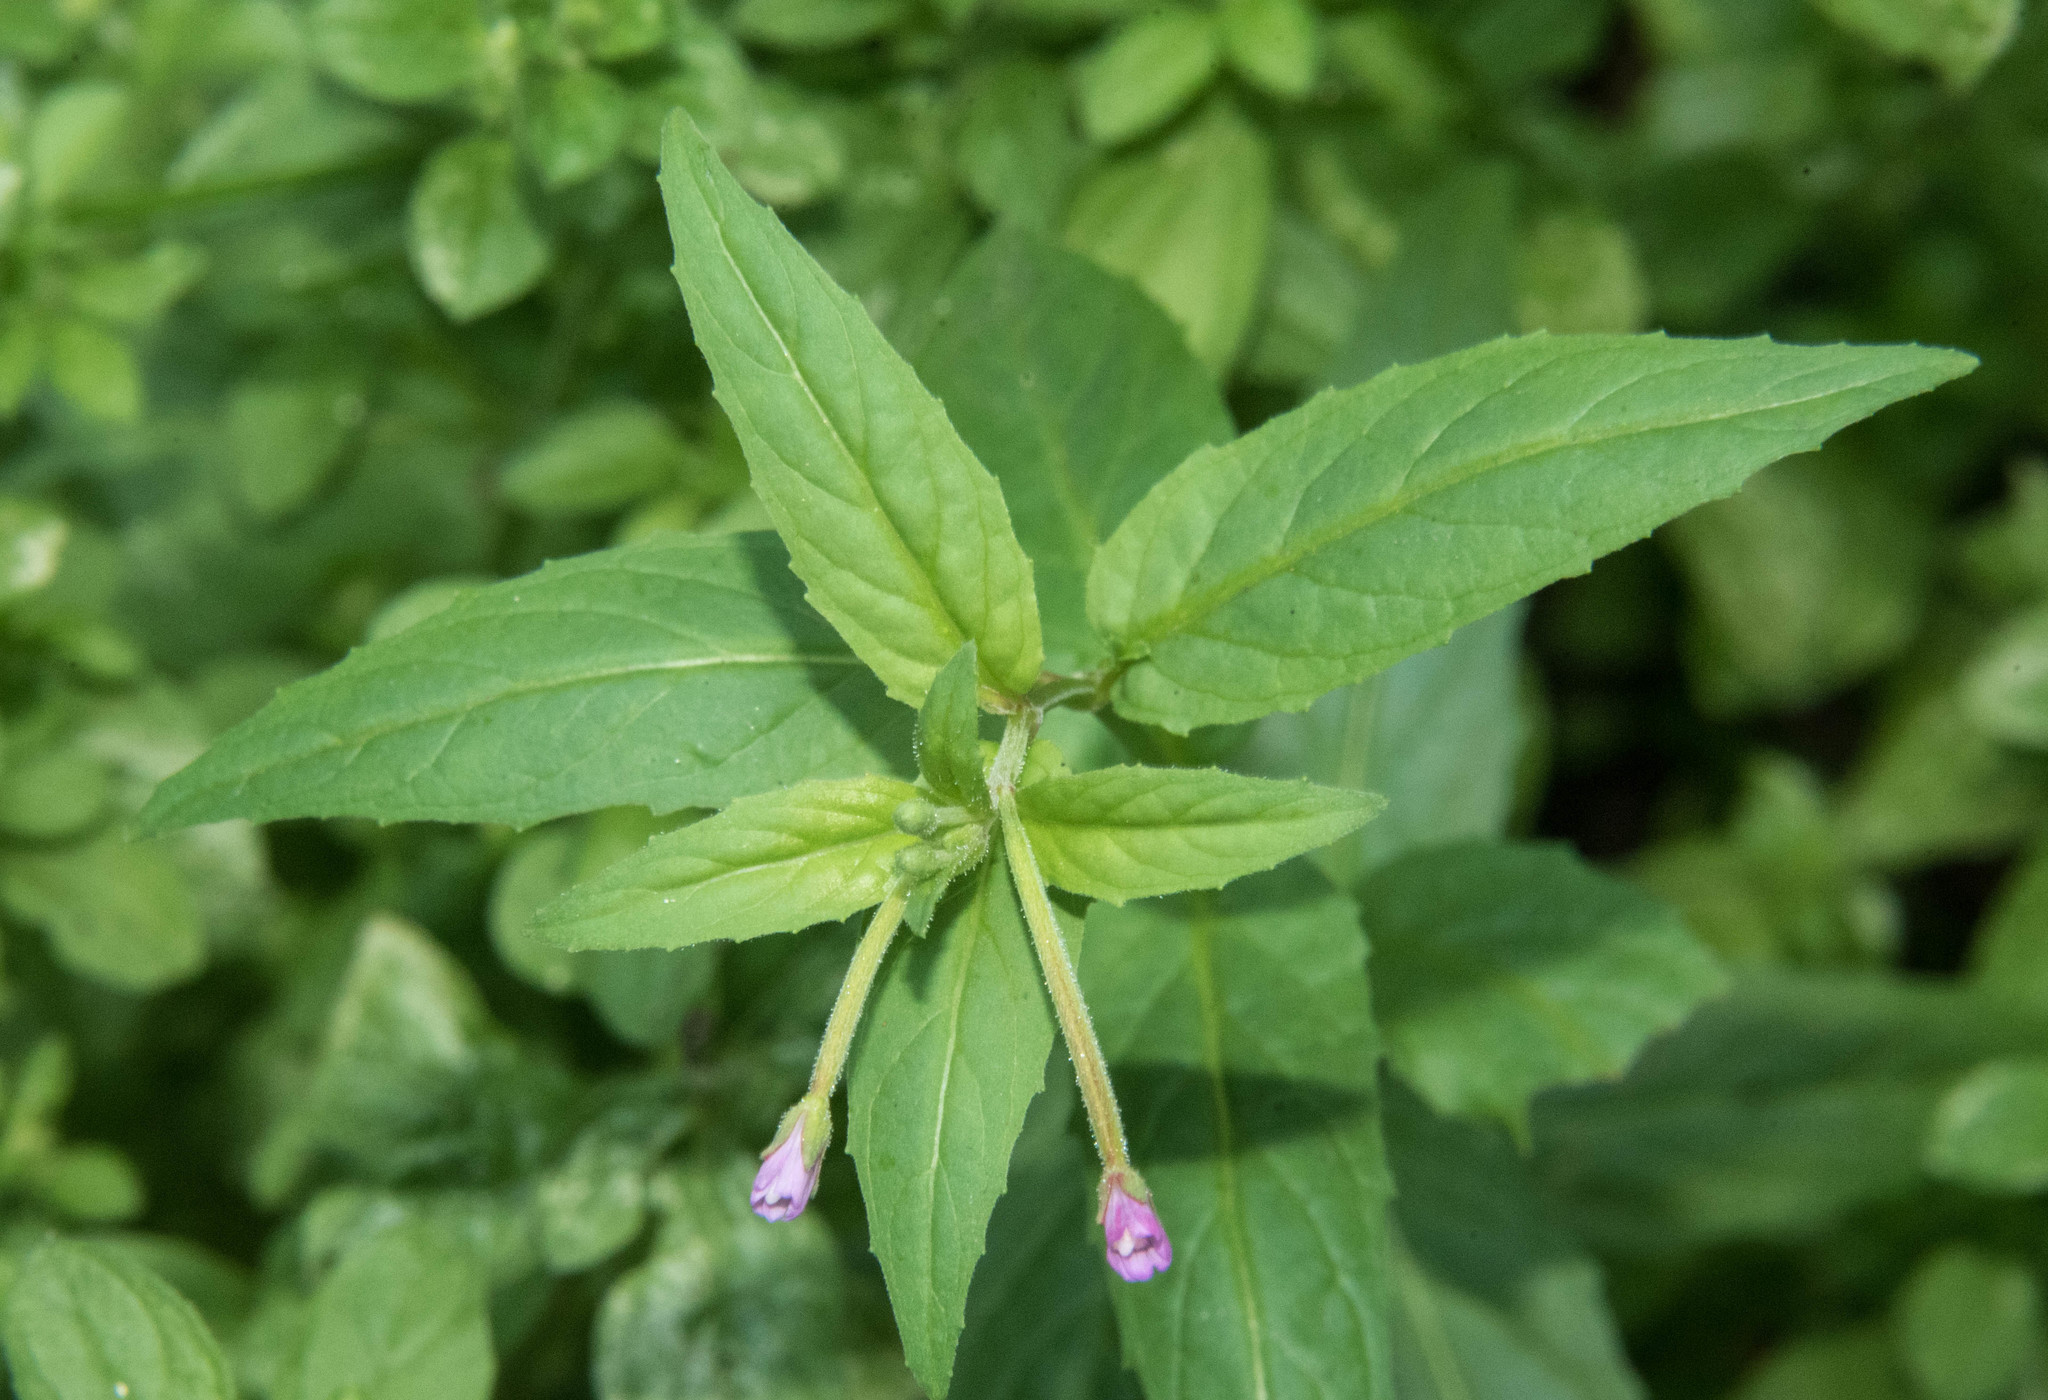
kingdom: Plantae
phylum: Tracheophyta
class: Magnoliopsida
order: Myrtales
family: Onagraceae
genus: Epilobium
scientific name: Epilobium ciliatum
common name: American willowherb
